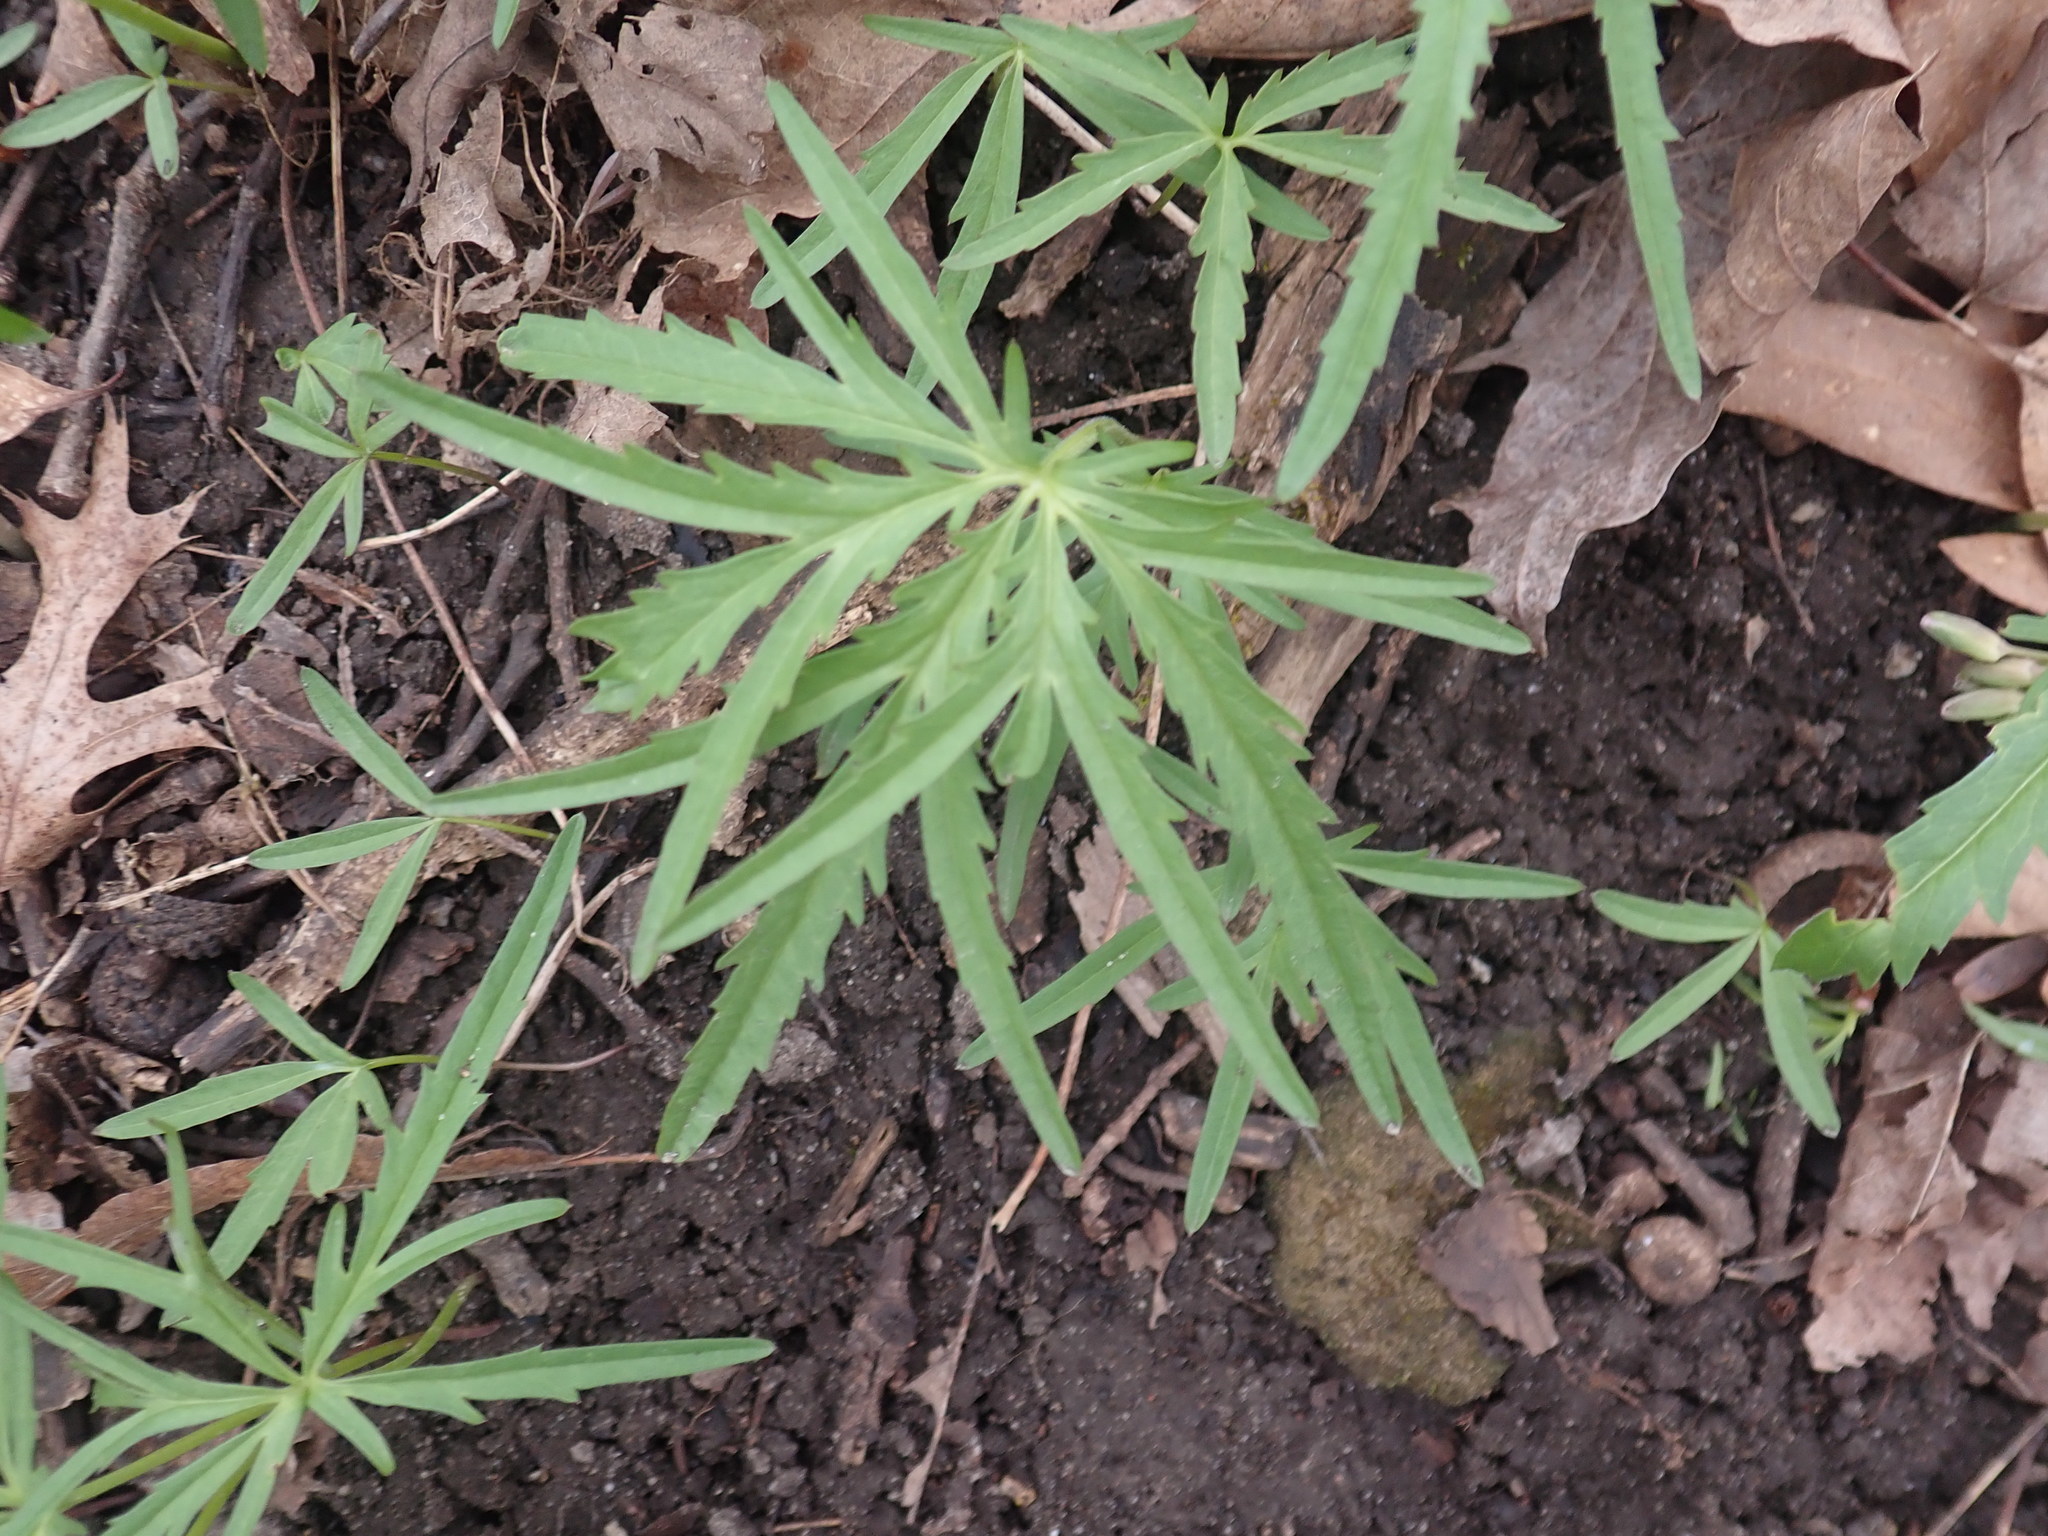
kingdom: Plantae
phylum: Tracheophyta
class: Magnoliopsida
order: Brassicales
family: Brassicaceae
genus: Cardamine
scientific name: Cardamine concatenata
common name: Cut-leaf toothcup
